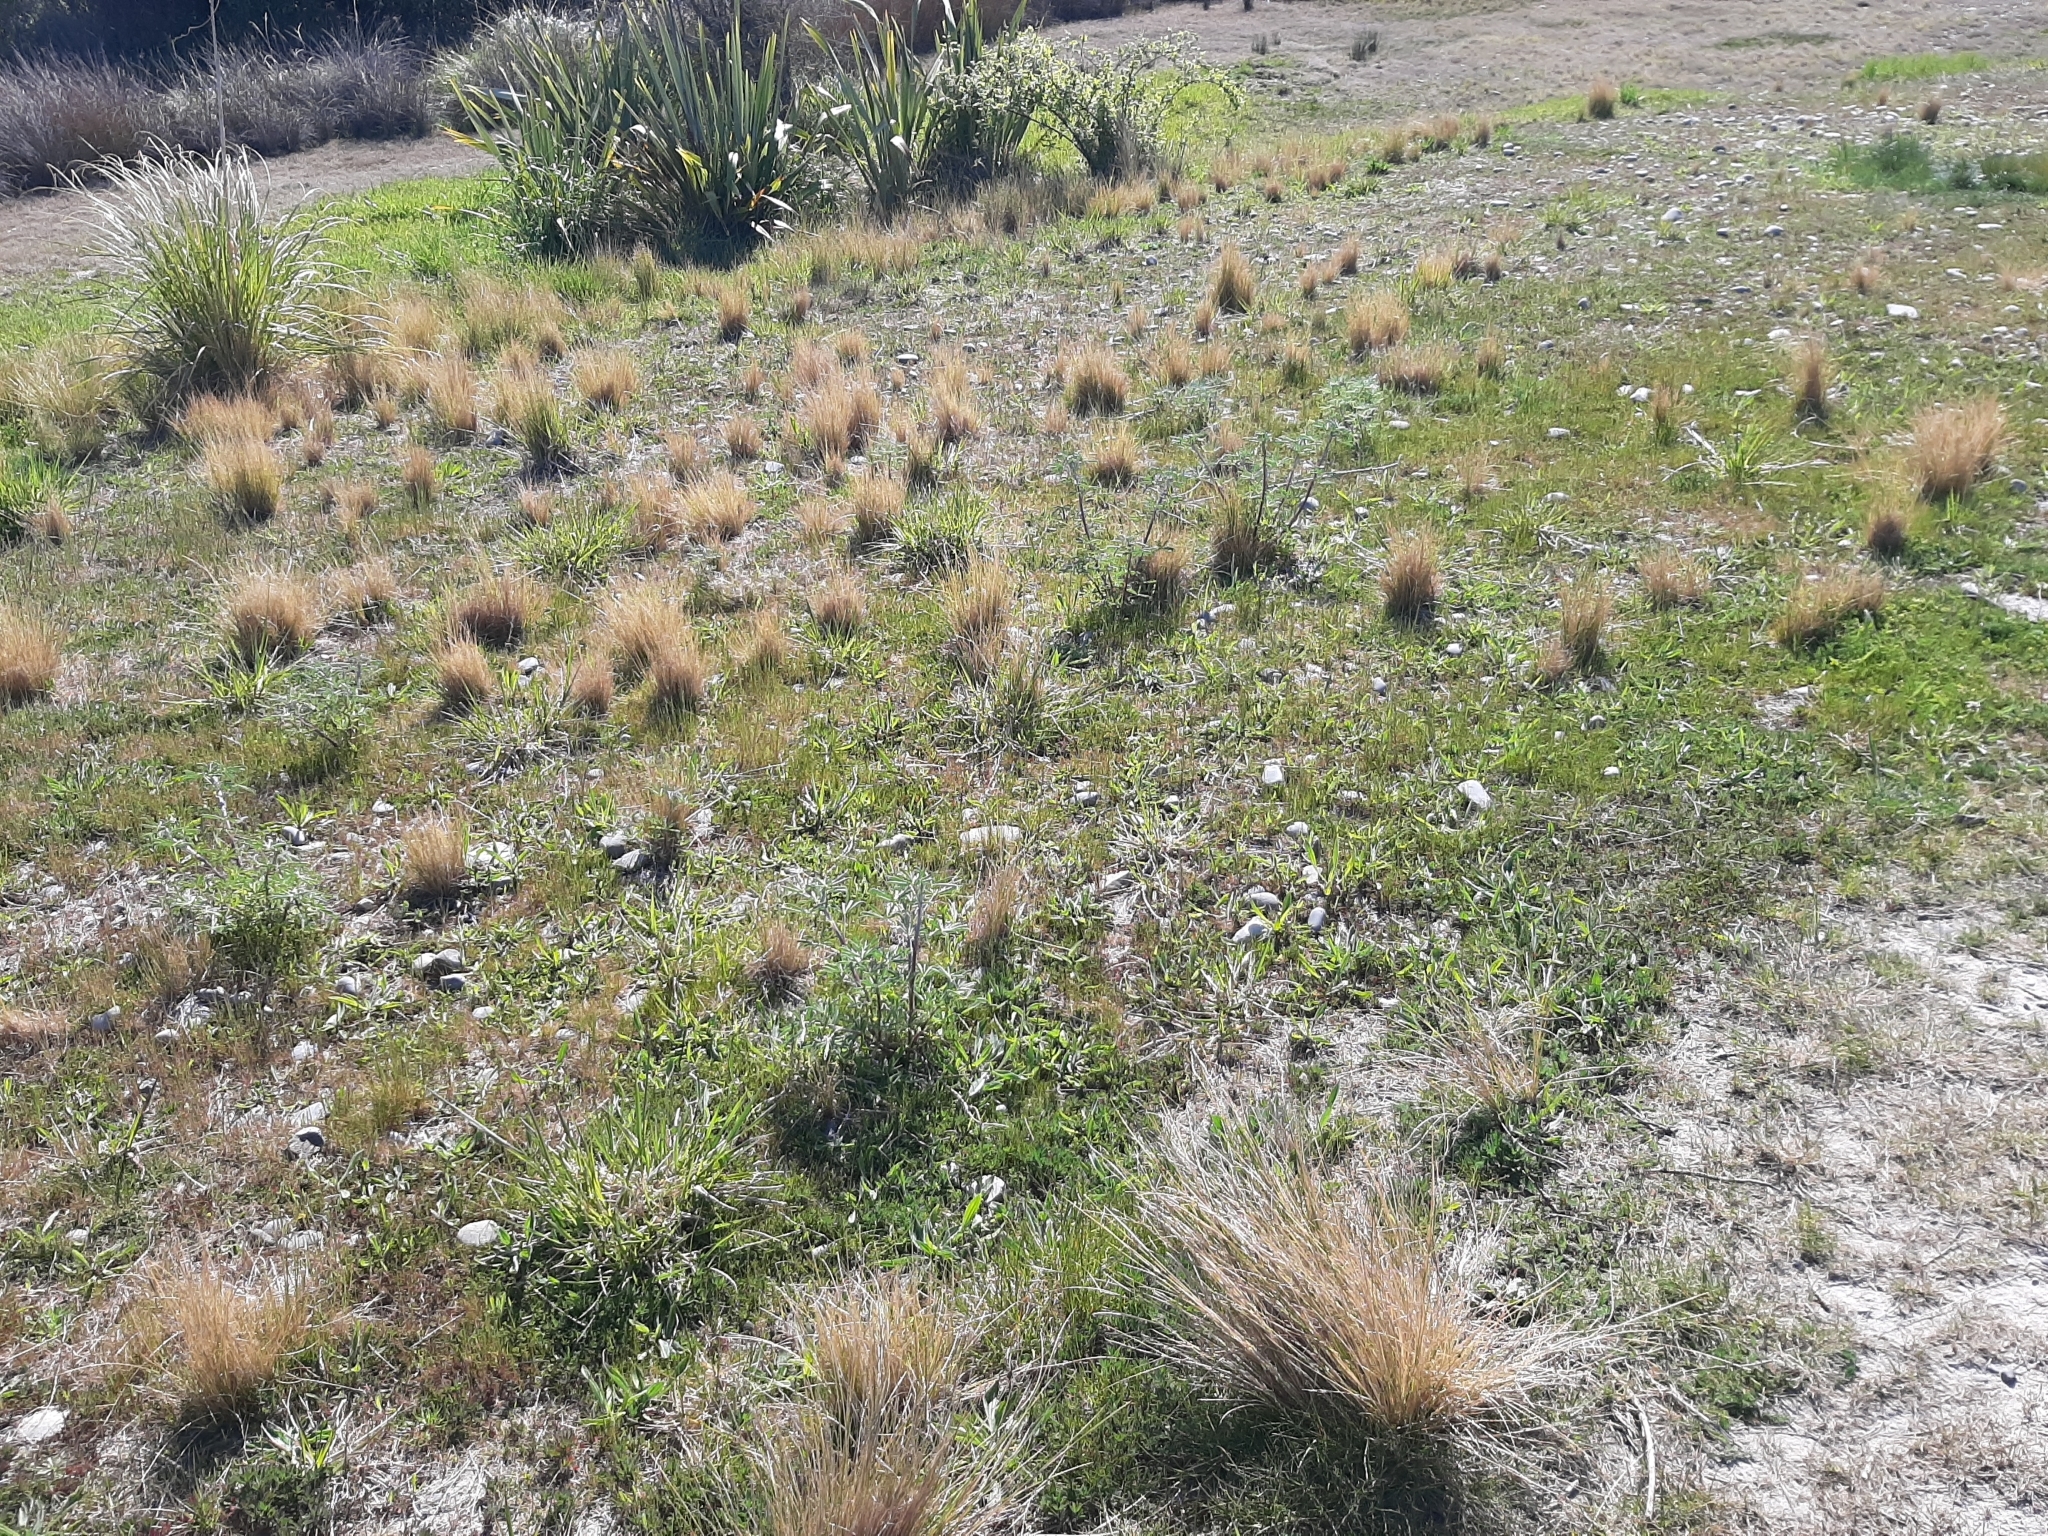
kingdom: Plantae
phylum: Tracheophyta
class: Liliopsida
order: Poales
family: Poaceae
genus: Poa
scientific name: Poa cita
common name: Silver tussock
